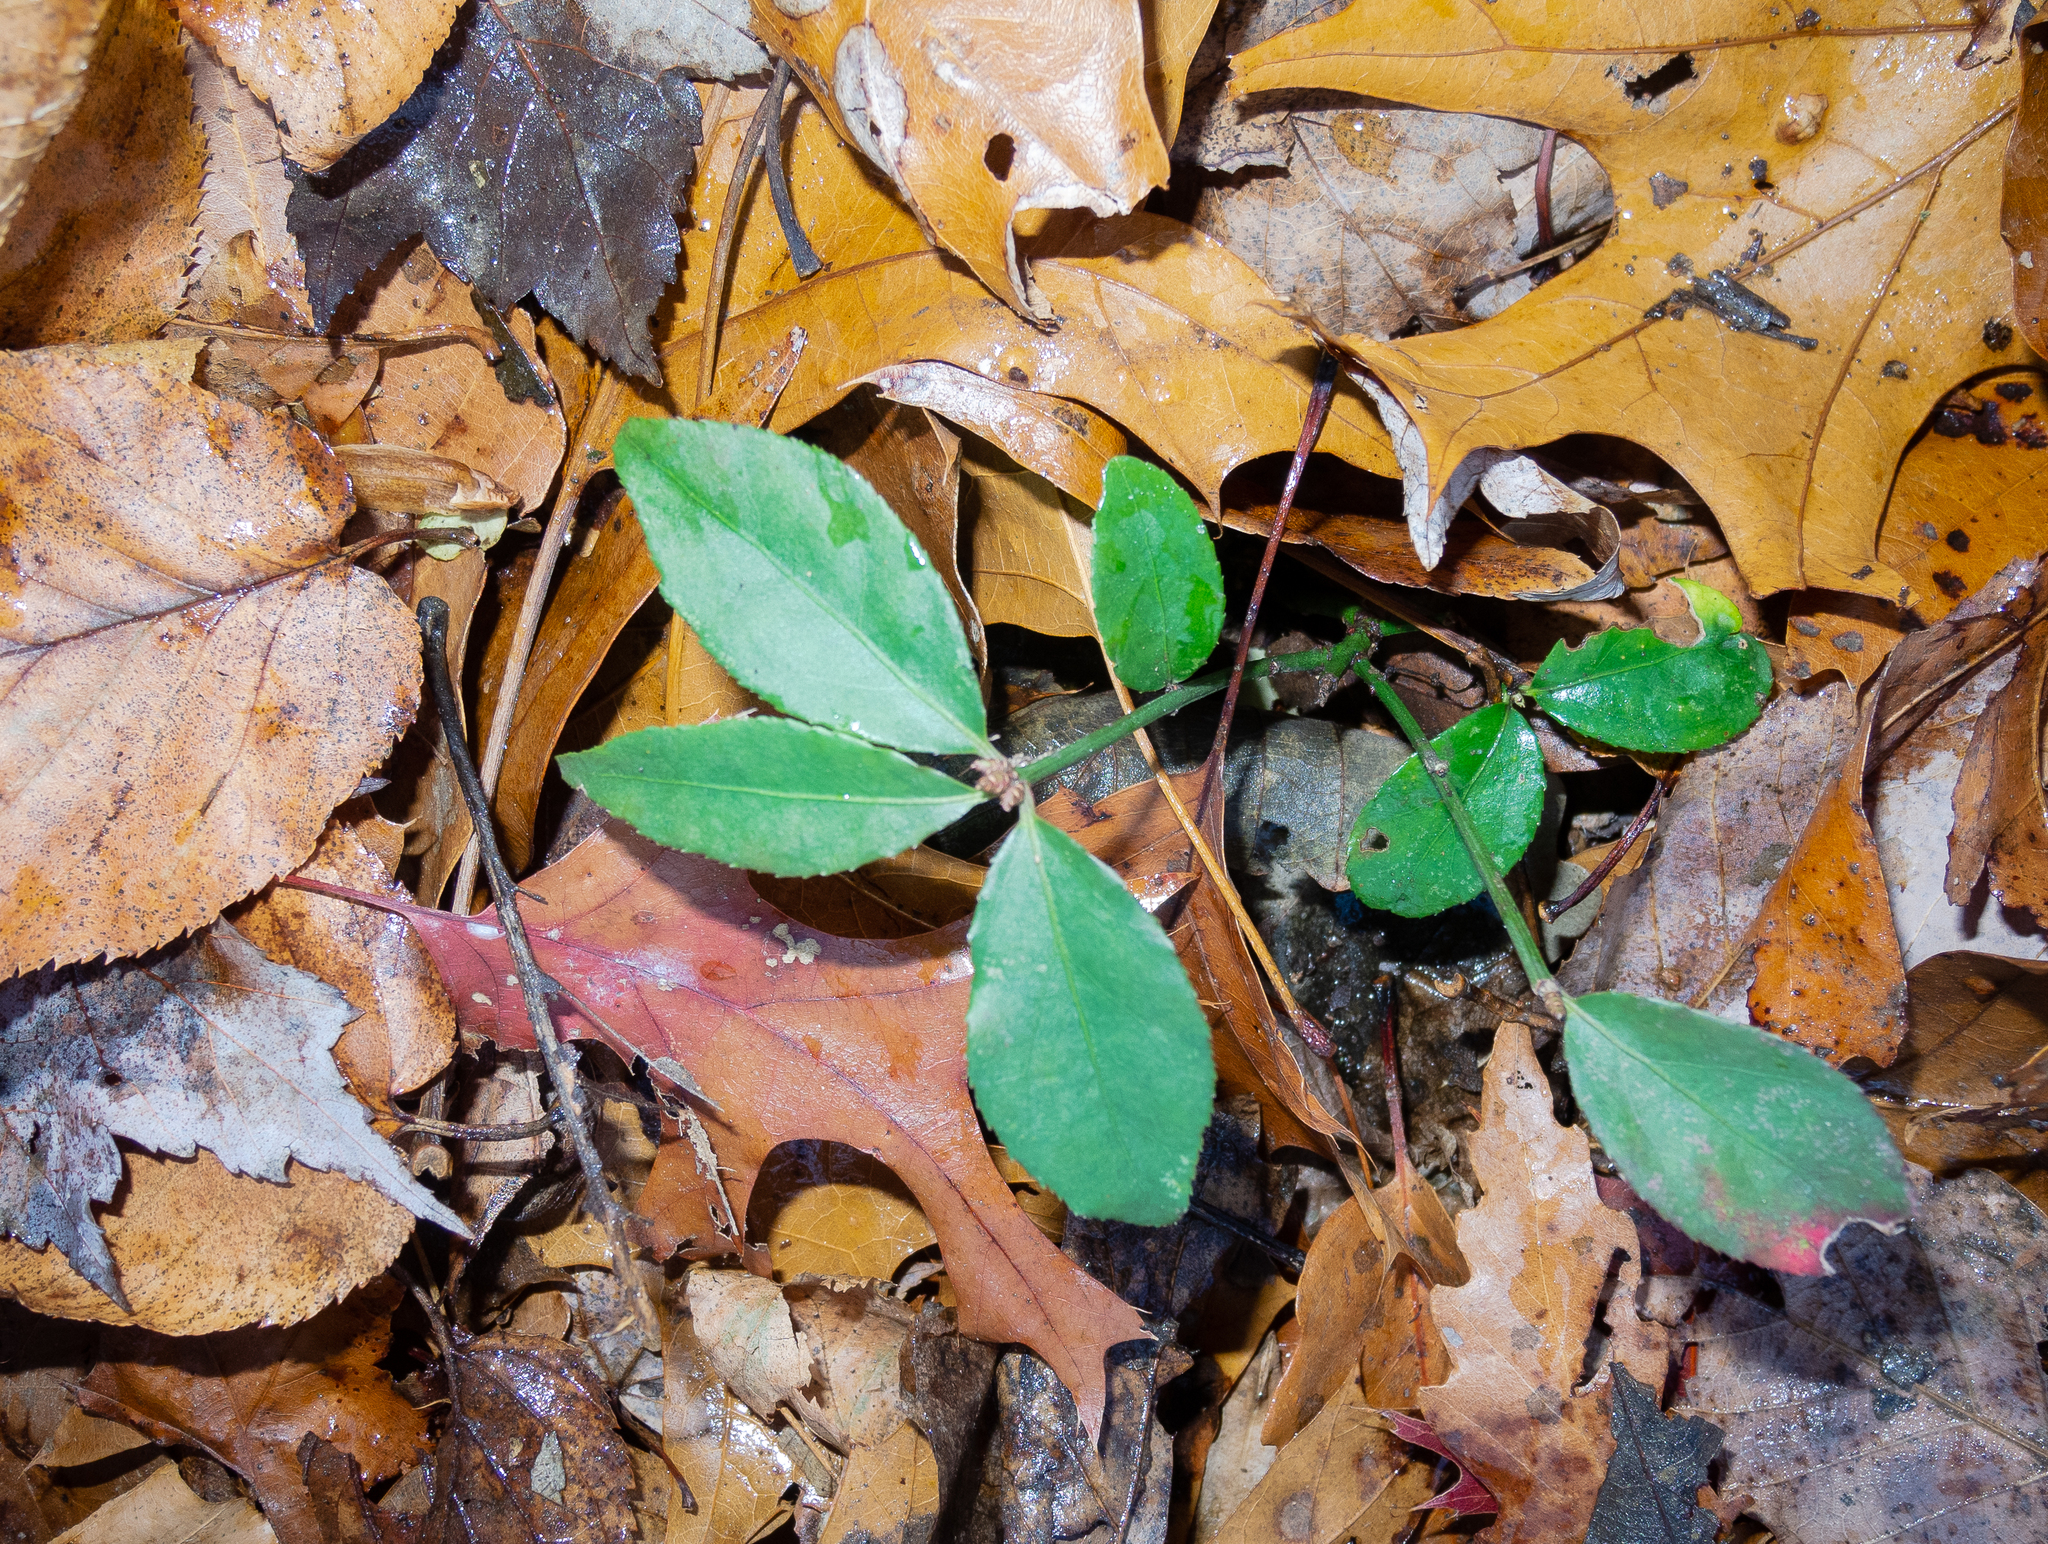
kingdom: Plantae
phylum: Tracheophyta
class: Magnoliopsida
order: Celastrales
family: Celastraceae
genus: Euonymus
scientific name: Euonymus alatus
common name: Winged euonymus
